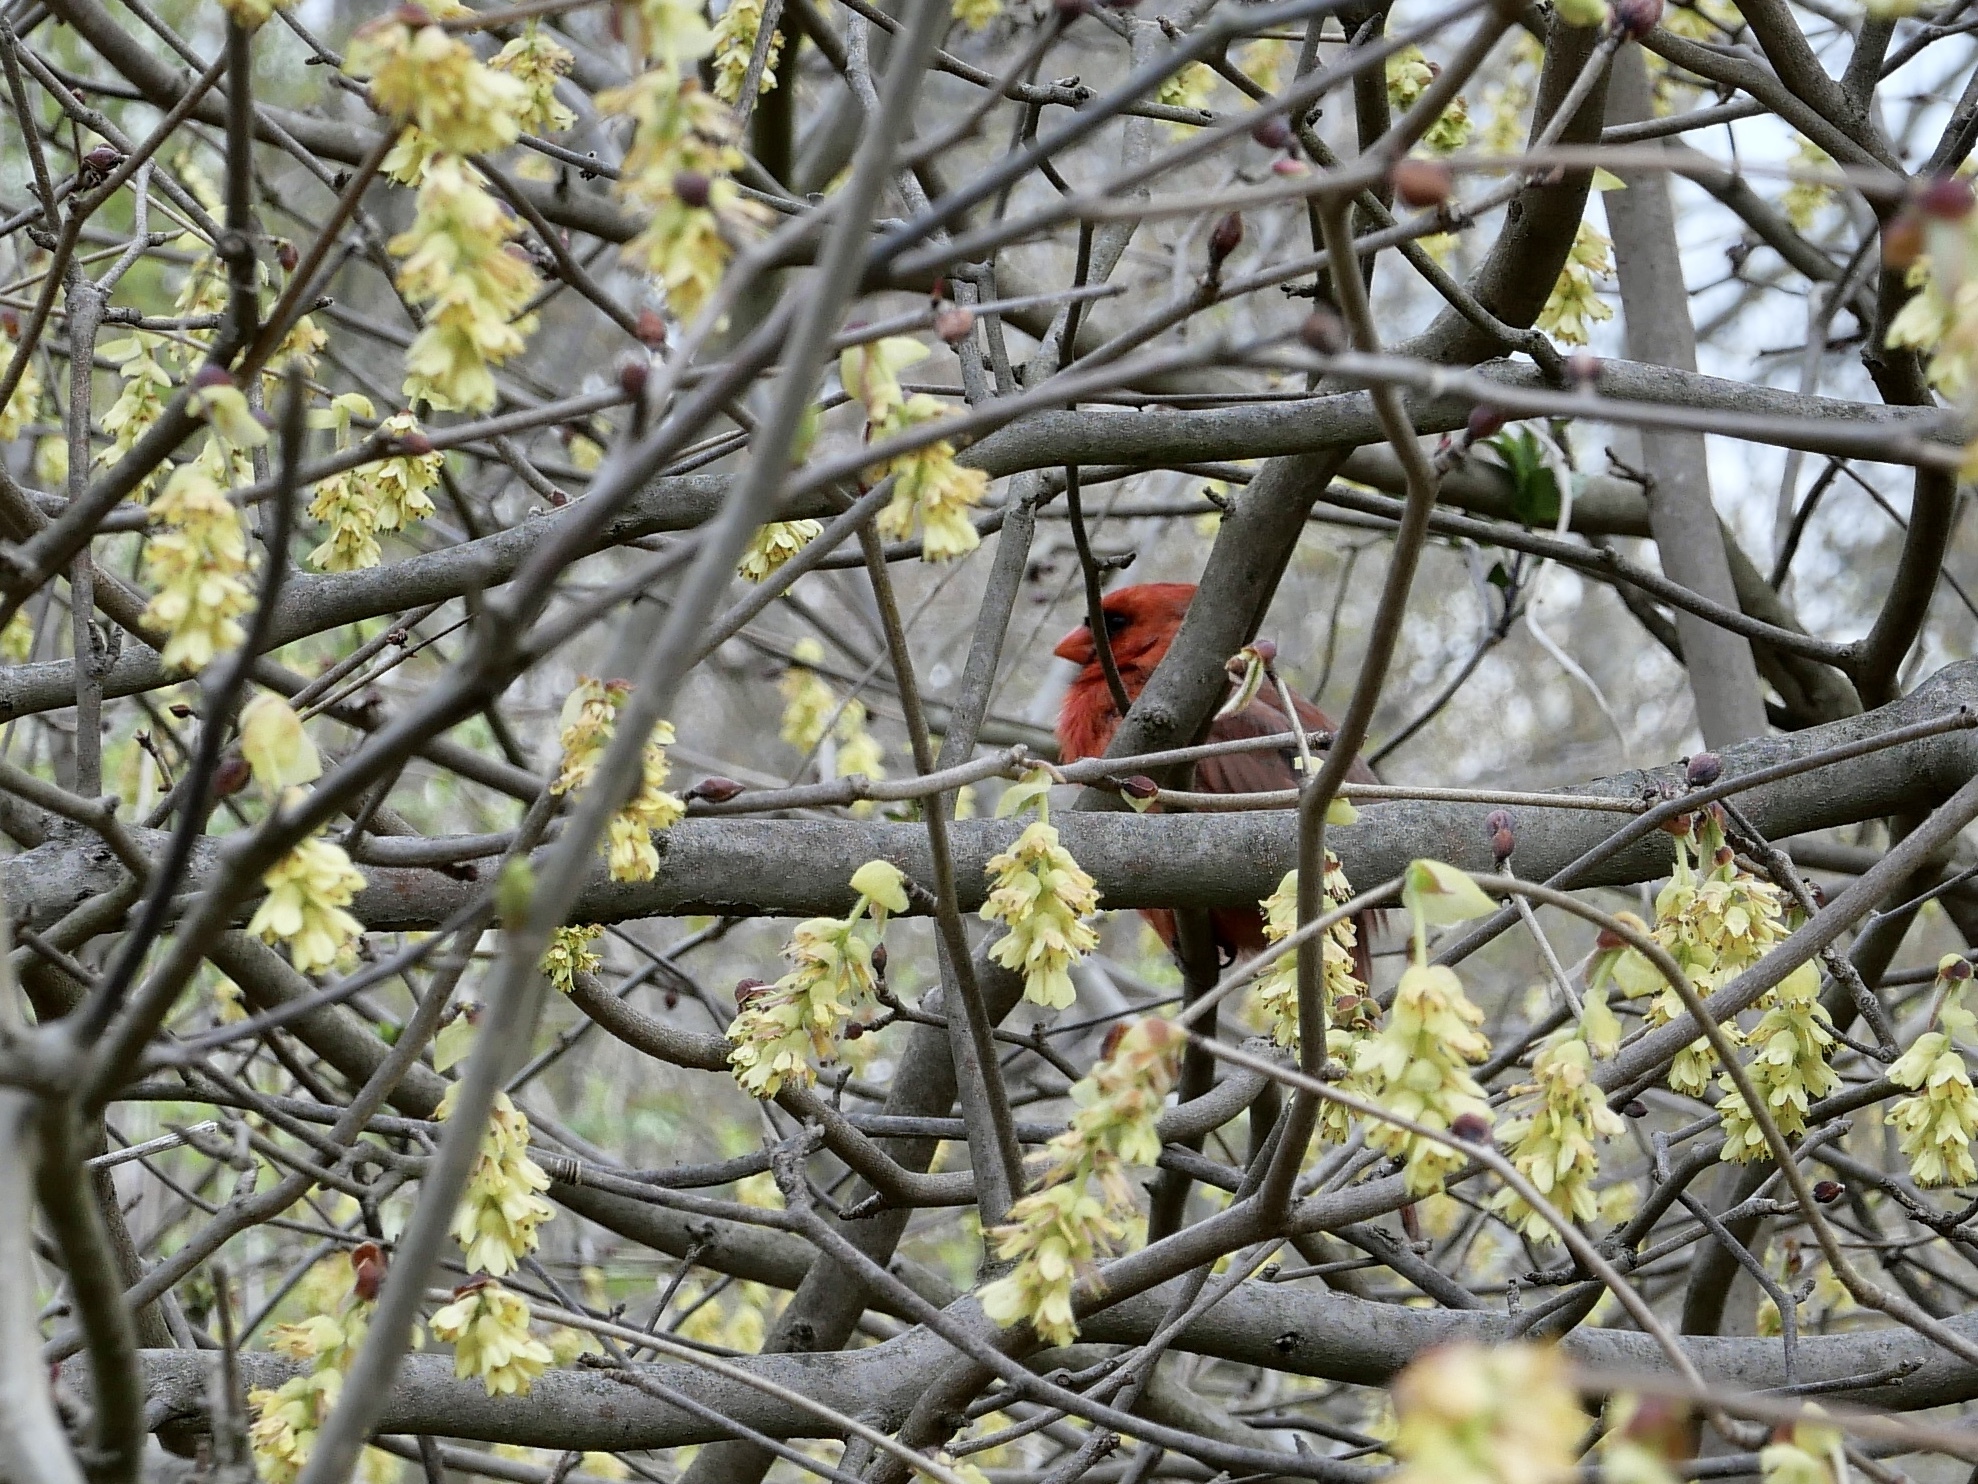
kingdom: Animalia
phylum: Chordata
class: Aves
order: Passeriformes
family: Cardinalidae
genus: Cardinalis
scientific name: Cardinalis cardinalis
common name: Northern cardinal
